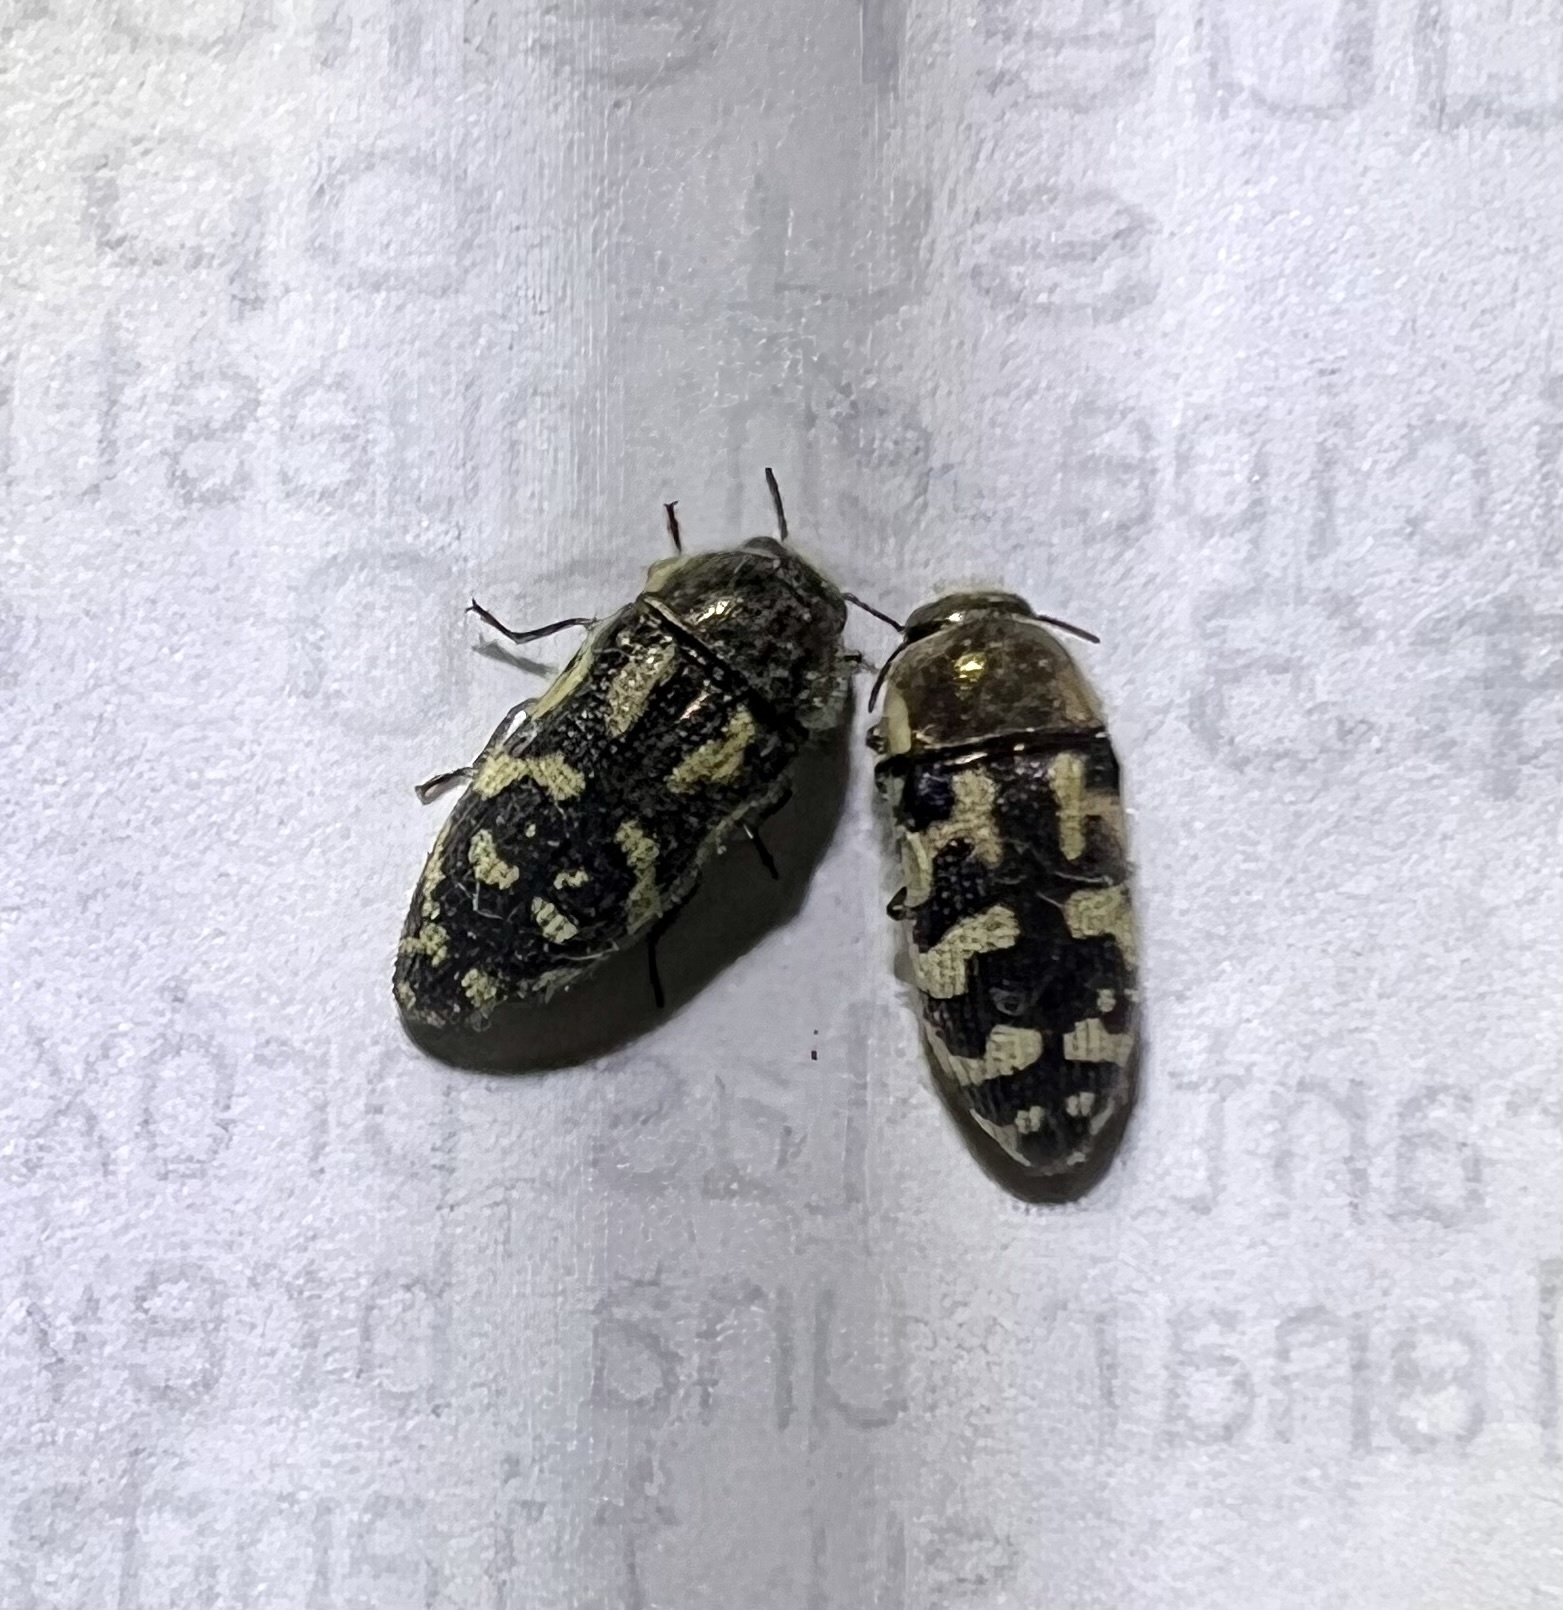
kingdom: Animalia
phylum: Arthropoda
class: Insecta
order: Coleoptera
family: Buprestidae
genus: Acmaeodera
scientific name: Acmaeodera mixta
